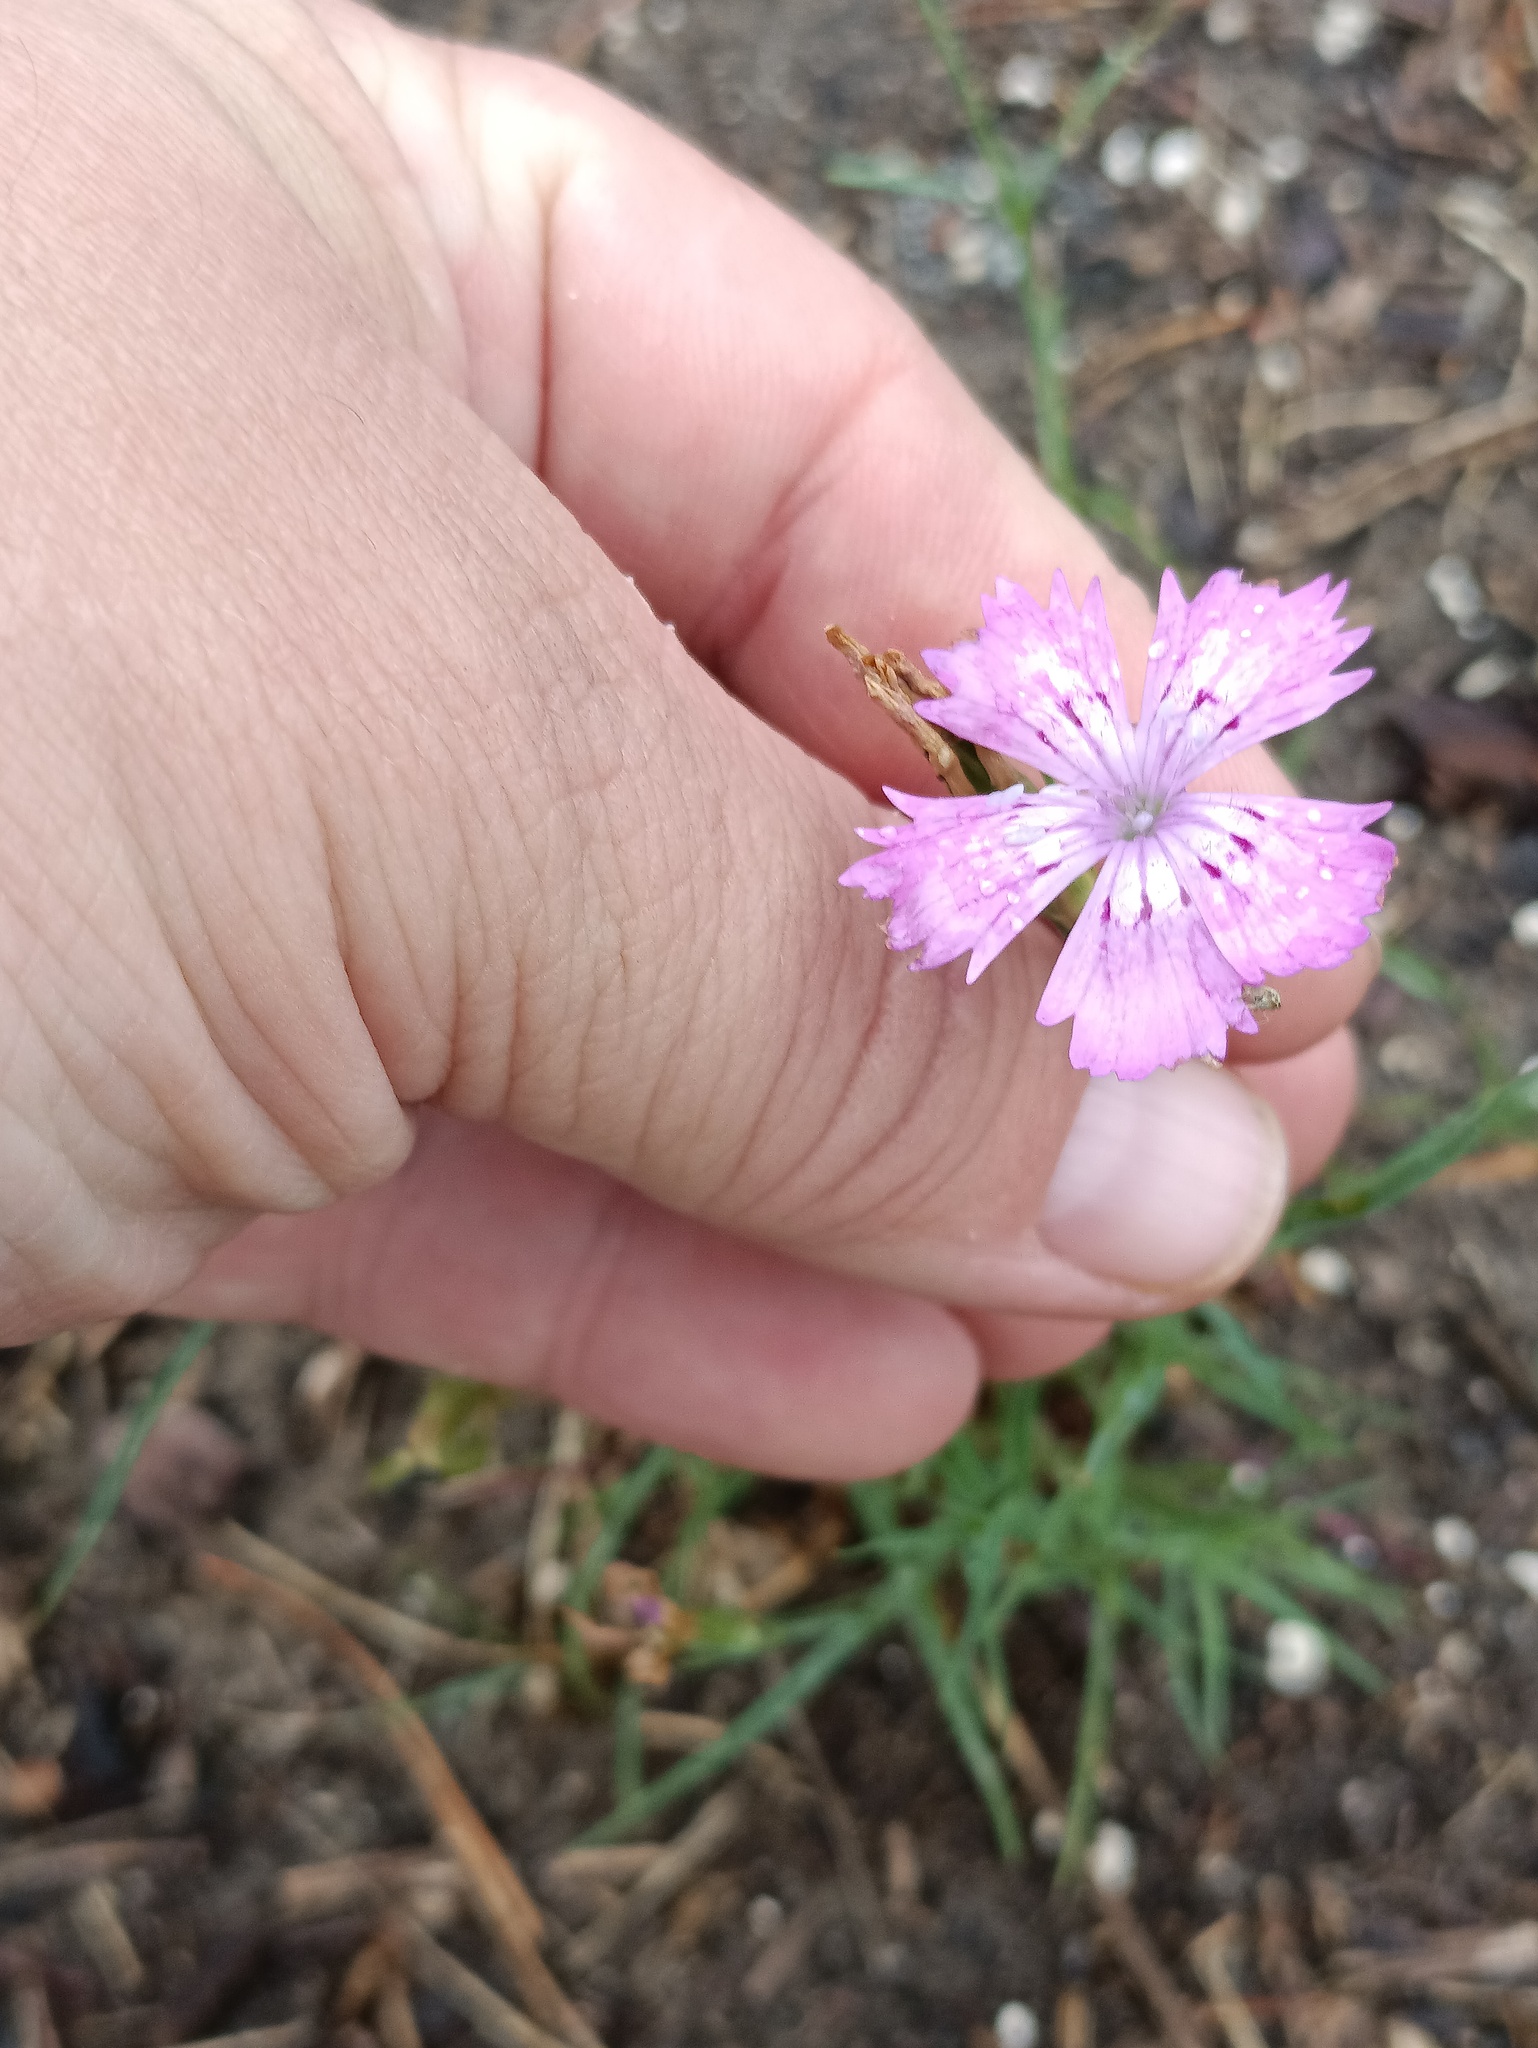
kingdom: Plantae
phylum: Tracheophyta
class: Magnoliopsida
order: Caryophyllales
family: Caryophyllaceae
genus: Dianthus
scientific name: Dianthus chinensis
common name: Rainbow pink
